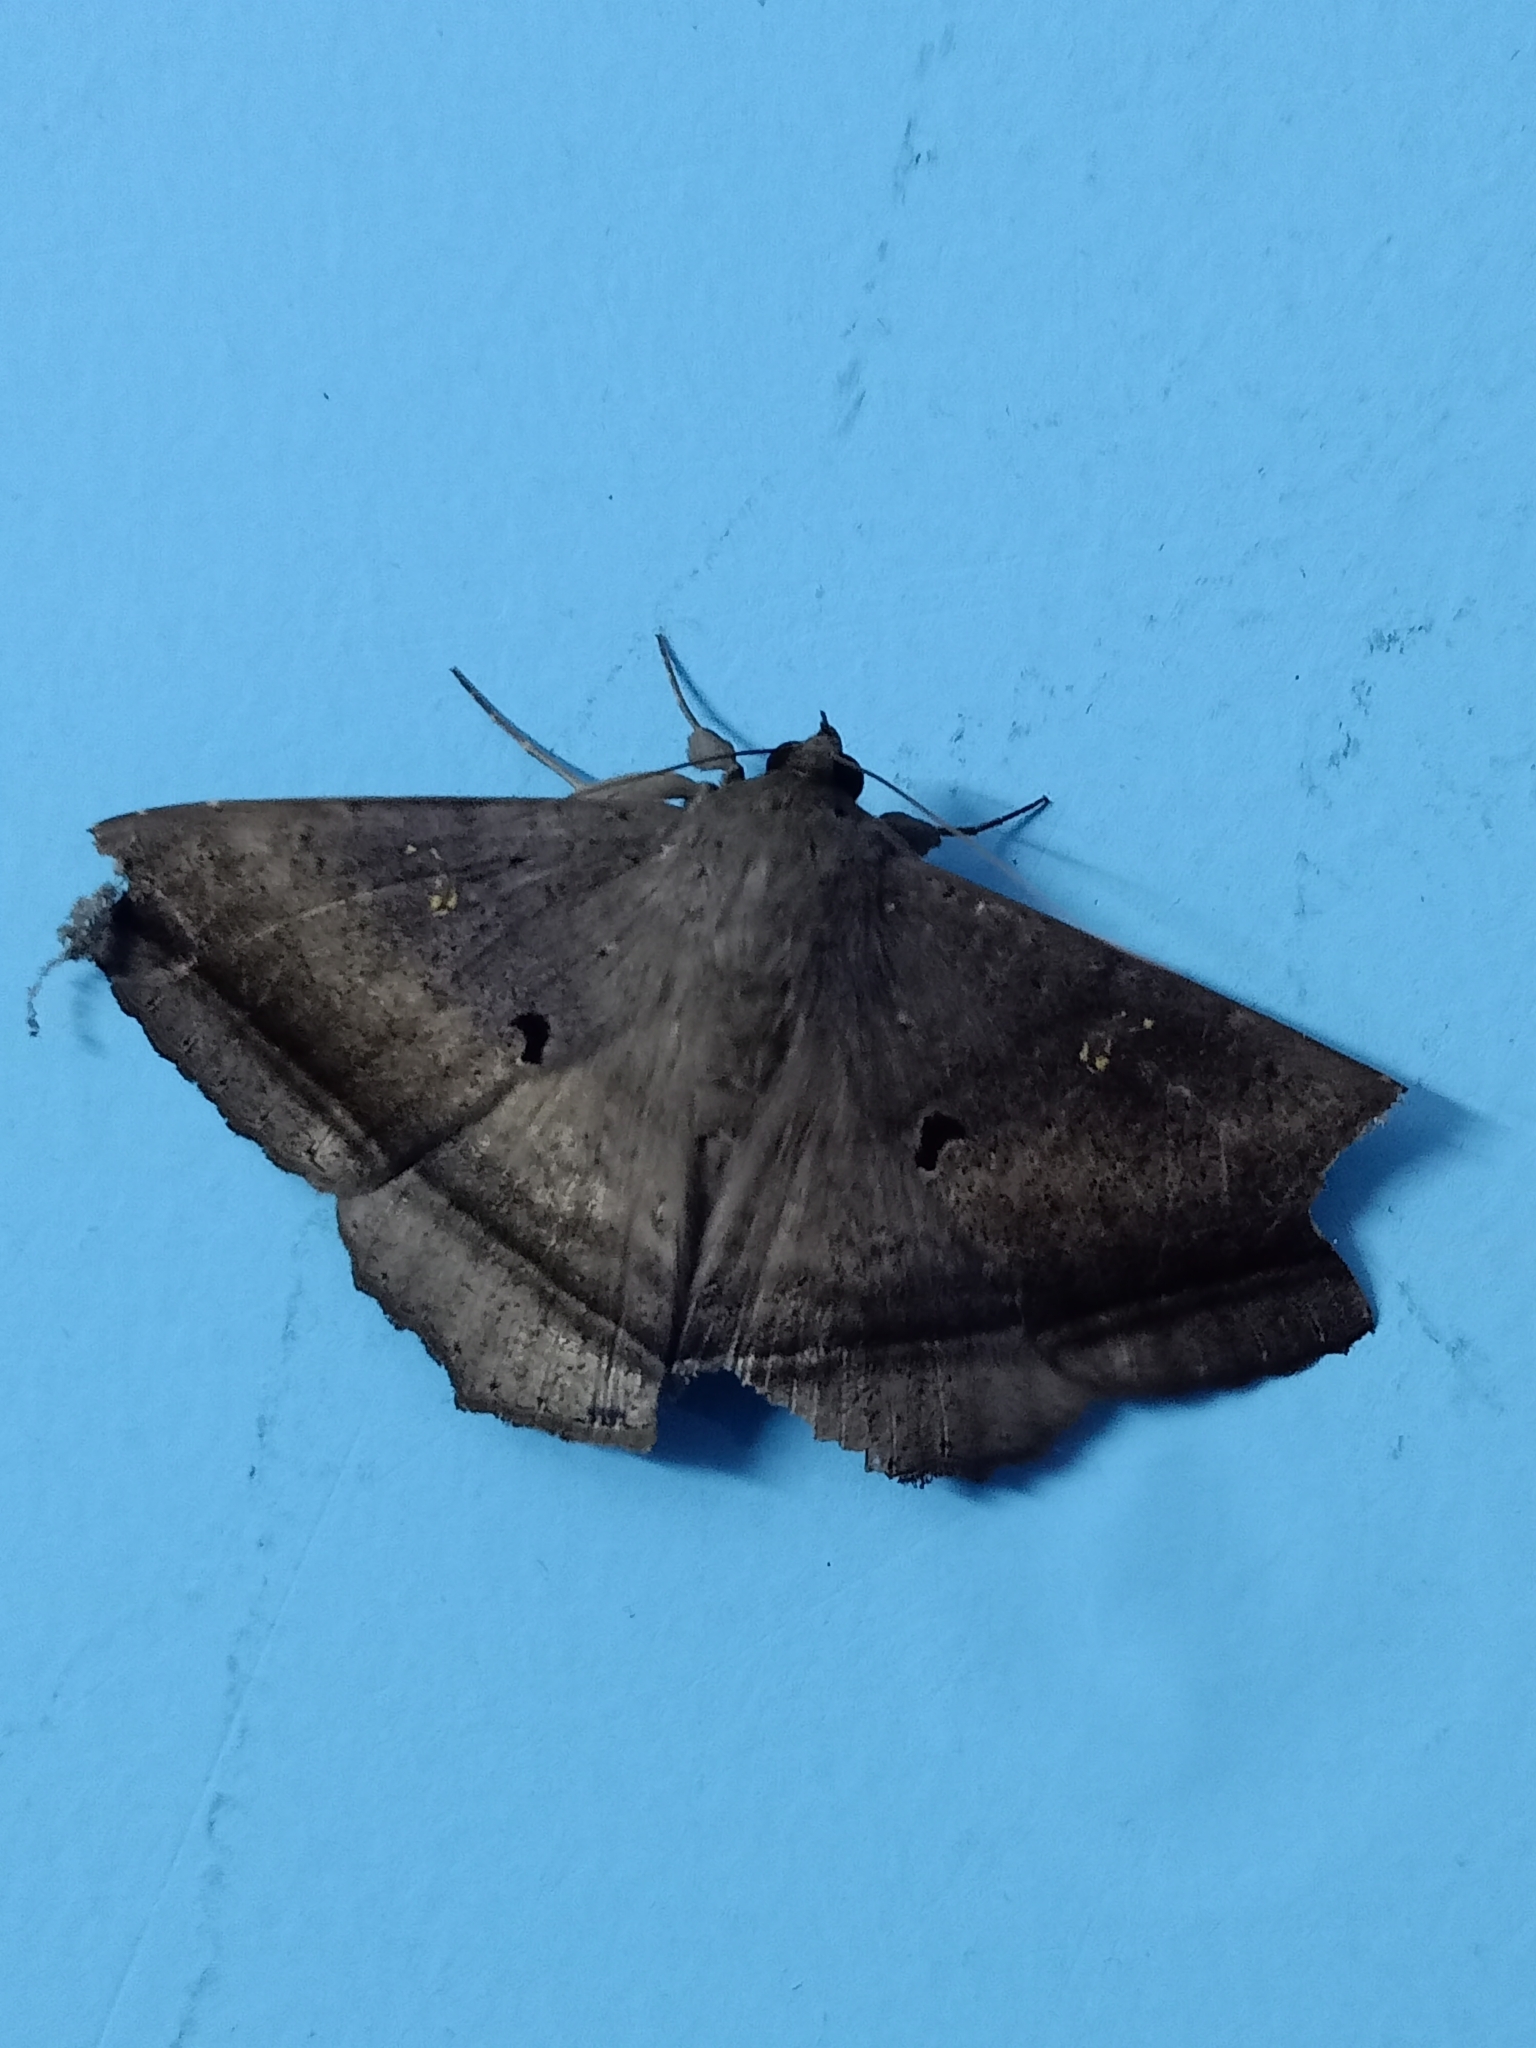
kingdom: Animalia
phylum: Arthropoda
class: Insecta
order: Lepidoptera
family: Erebidae
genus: Hulodes
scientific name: Hulodes caranea
